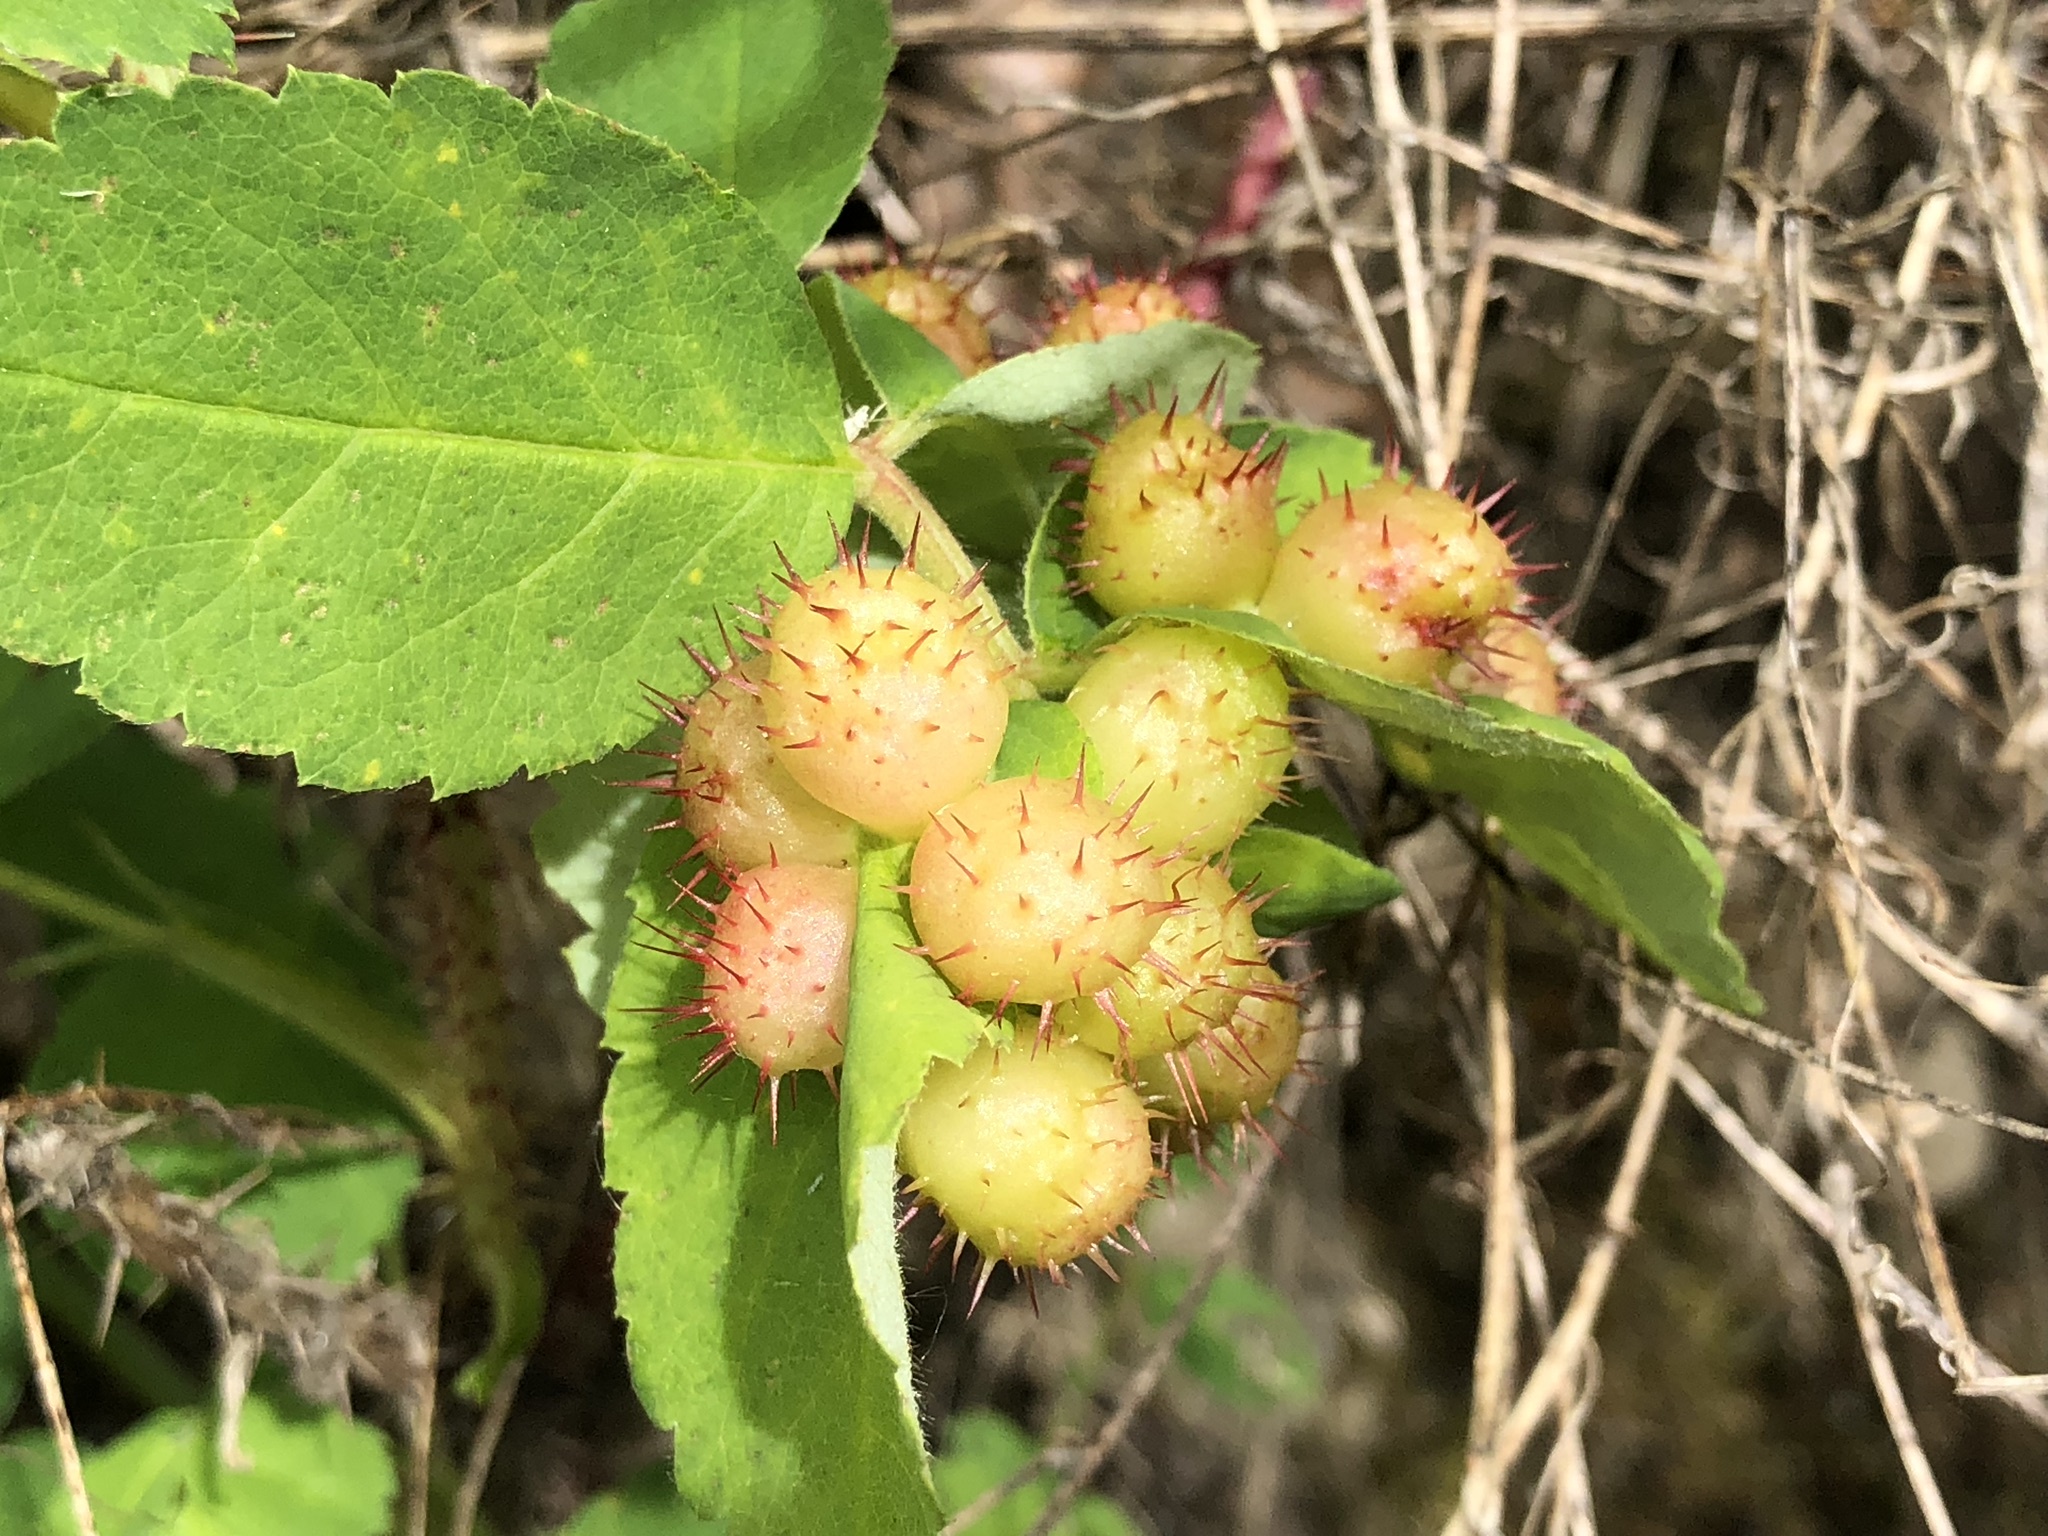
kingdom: Animalia
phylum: Arthropoda
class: Insecta
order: Hymenoptera
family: Cynipidae
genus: Diplolepis
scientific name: Diplolepis polita
